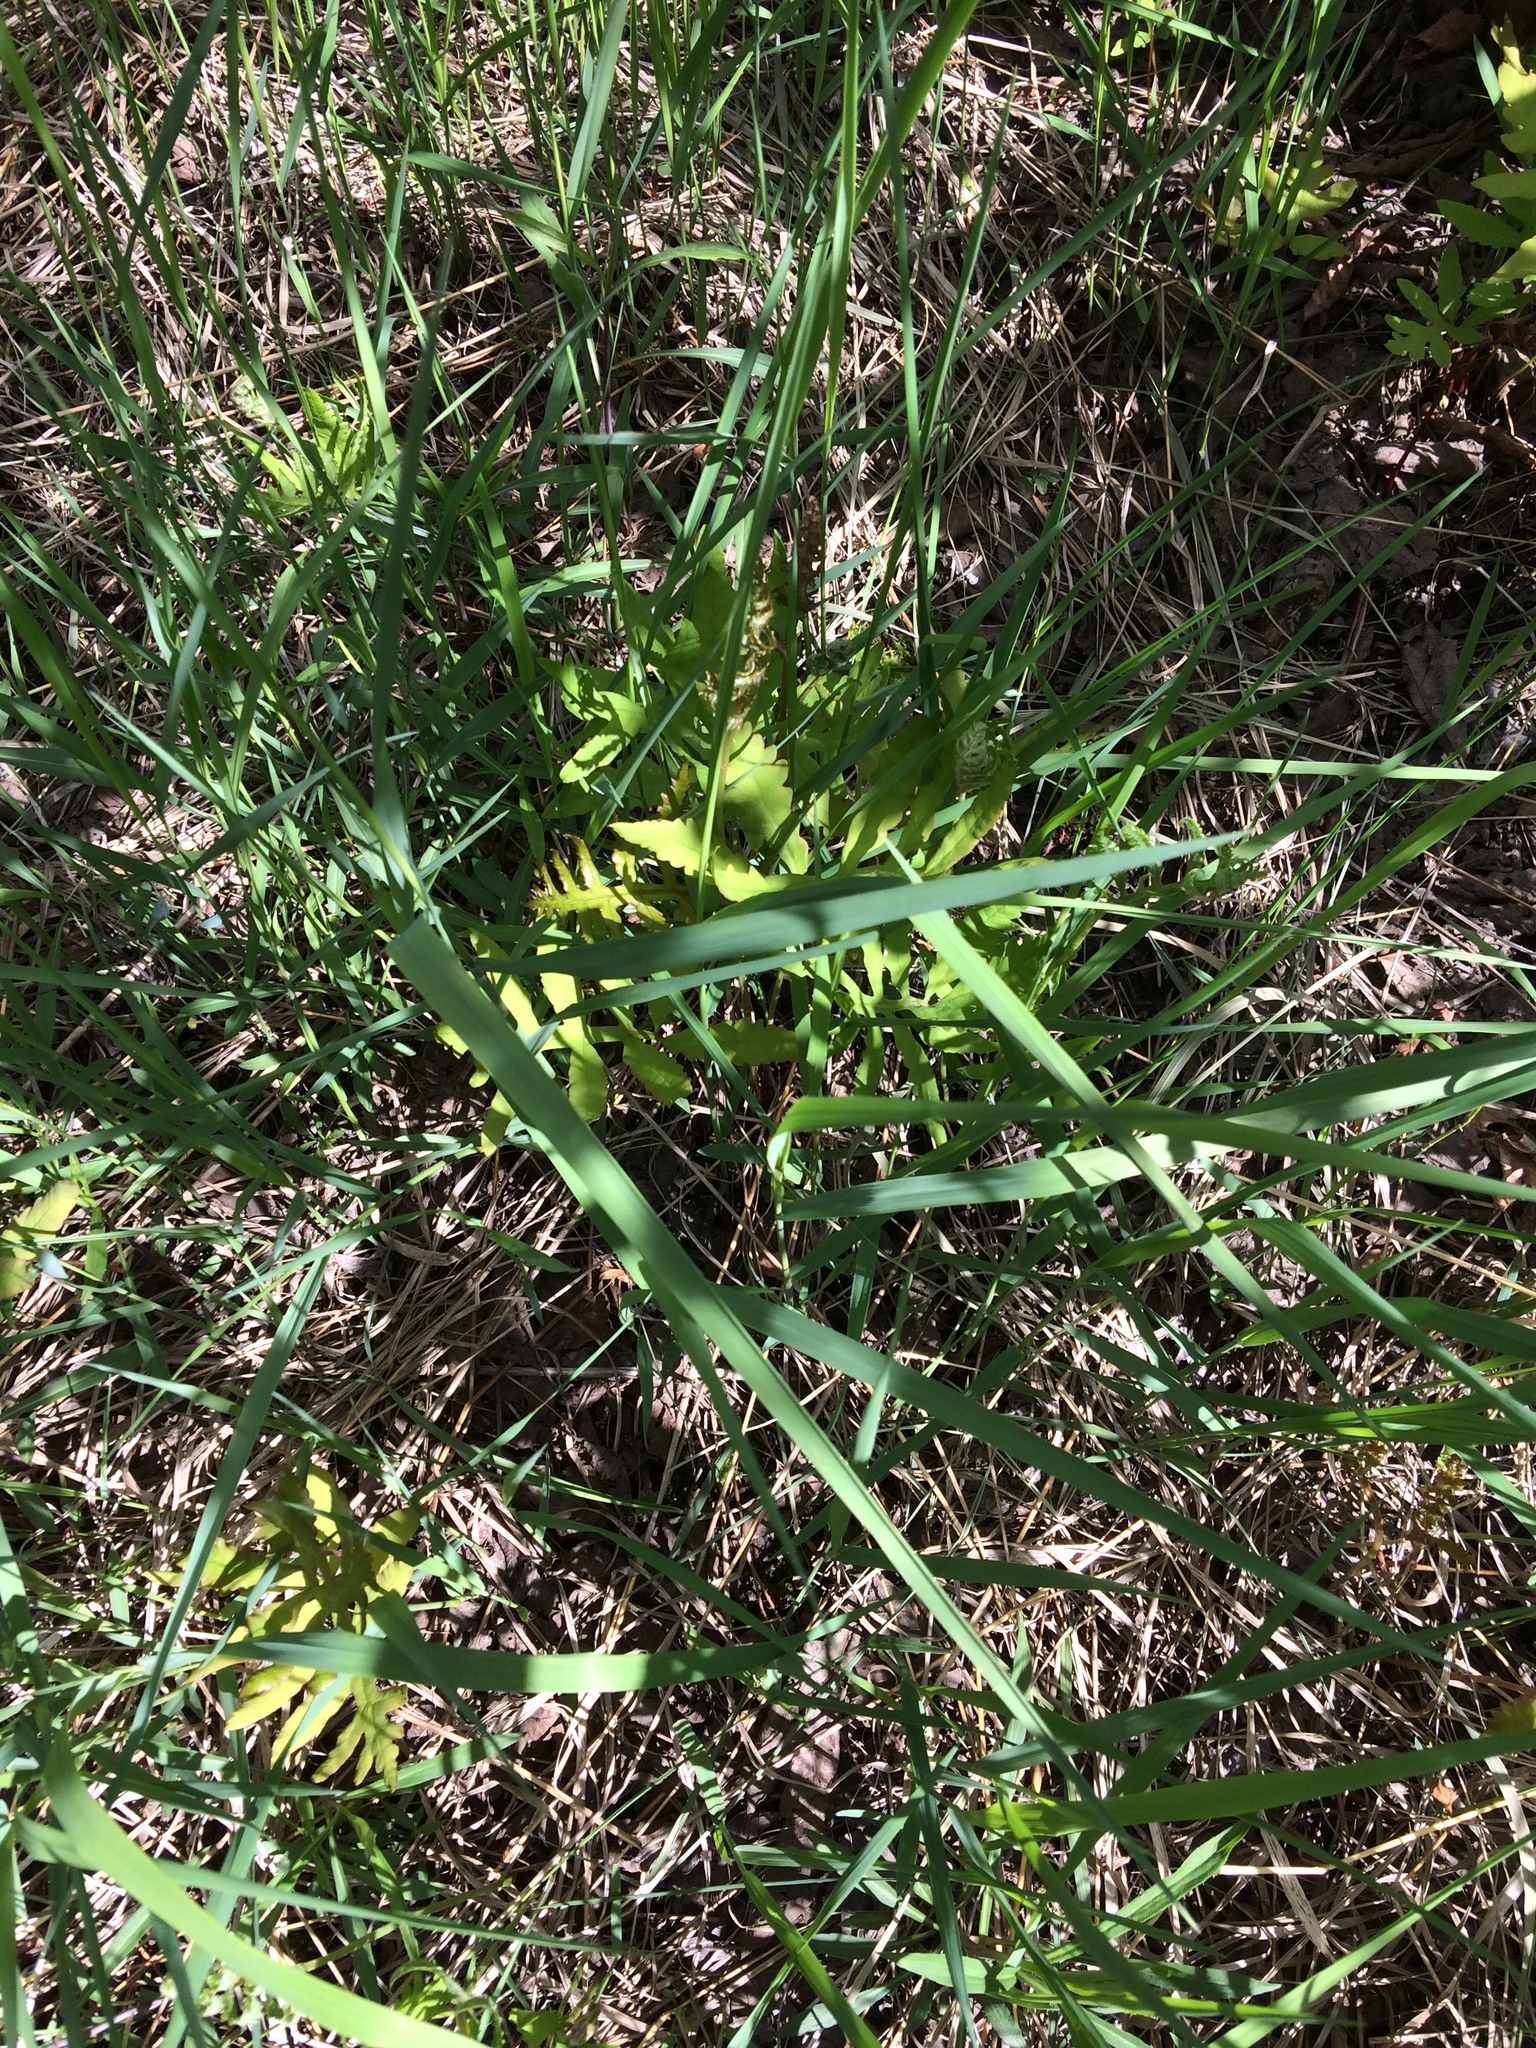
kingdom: Plantae
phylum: Tracheophyta
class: Polypodiopsida
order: Polypodiales
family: Onocleaceae
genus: Onoclea
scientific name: Onoclea sensibilis
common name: Sensitive fern
